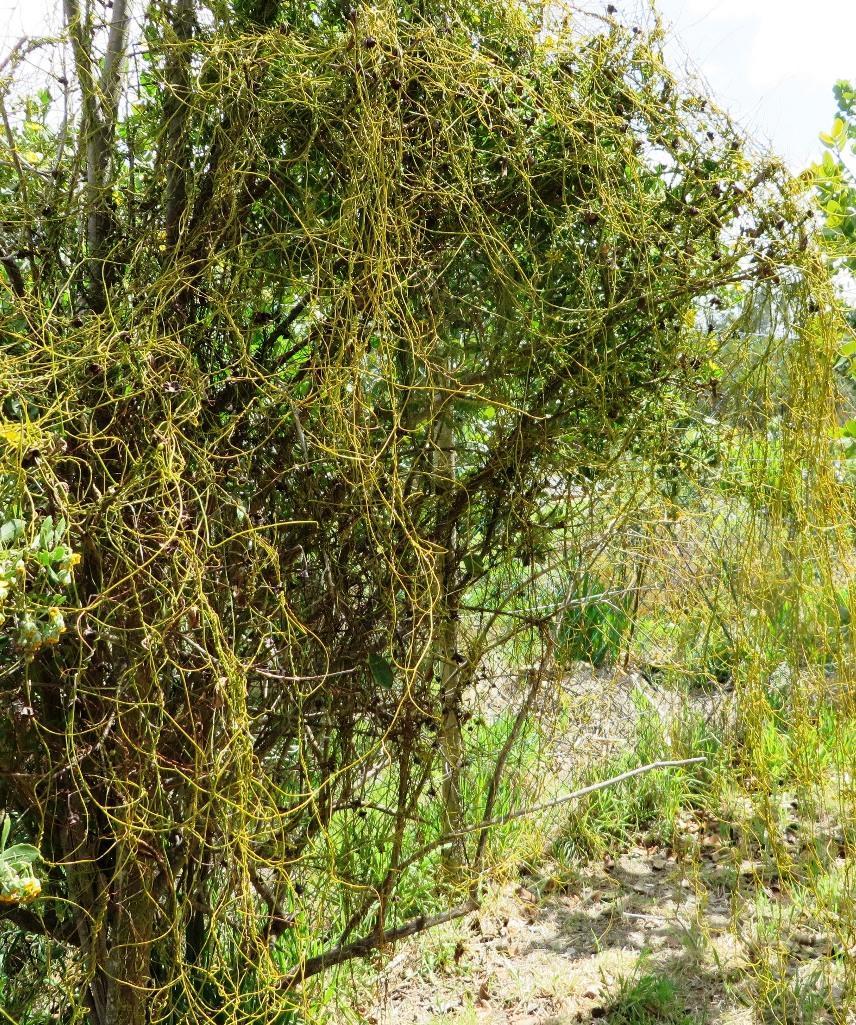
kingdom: Plantae
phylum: Tracheophyta
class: Magnoliopsida
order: Laurales
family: Lauraceae
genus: Cassytha
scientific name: Cassytha ciliolata
